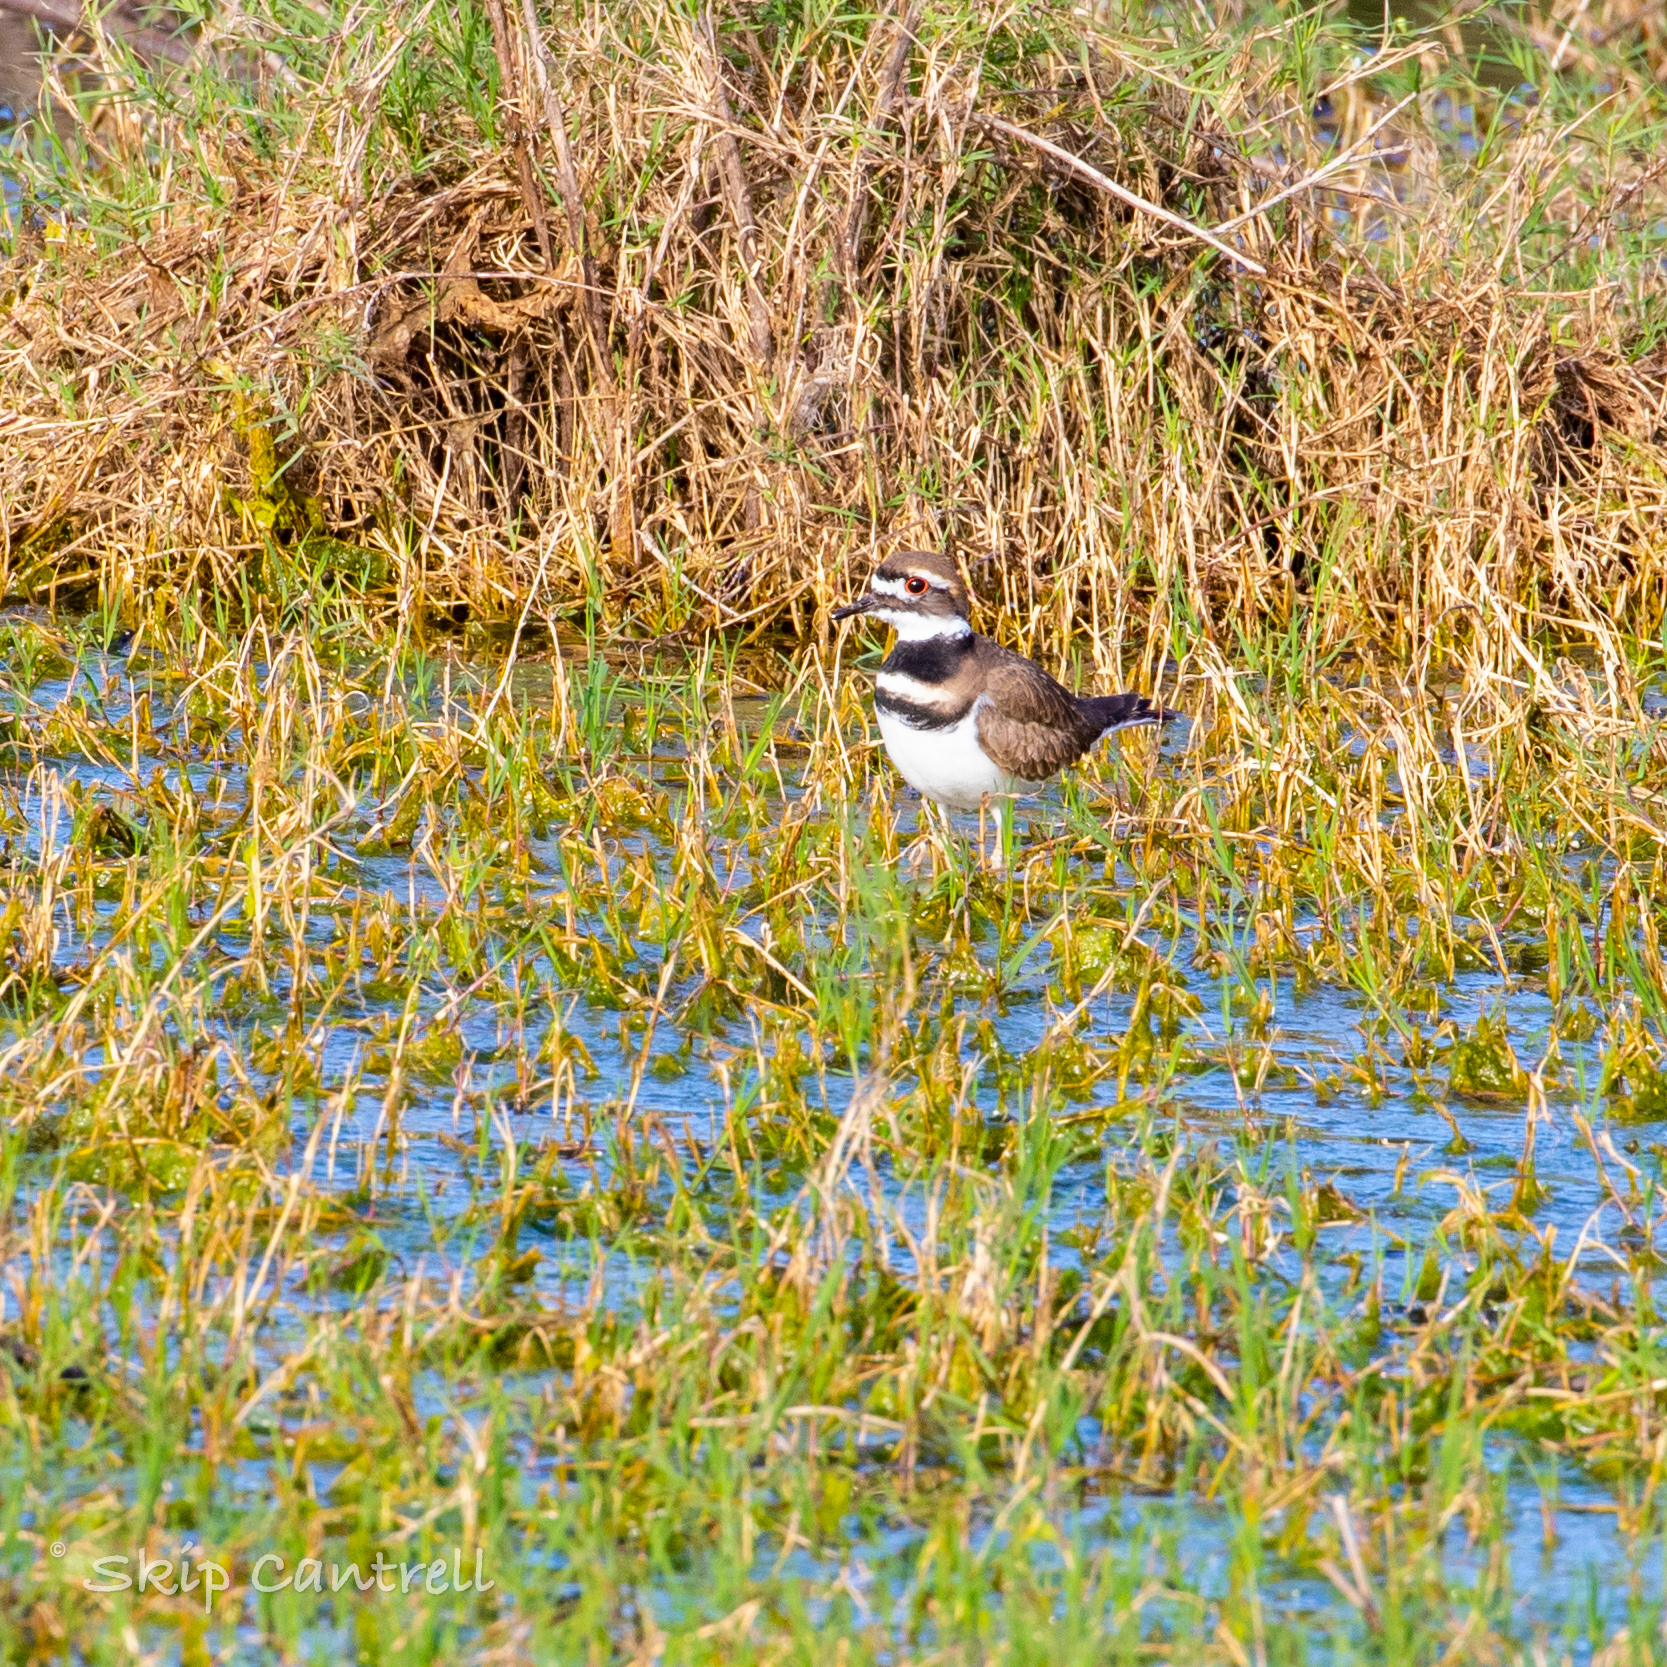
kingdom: Animalia
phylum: Chordata
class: Aves
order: Charadriiformes
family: Charadriidae
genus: Charadrius
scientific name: Charadrius vociferus
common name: Killdeer
